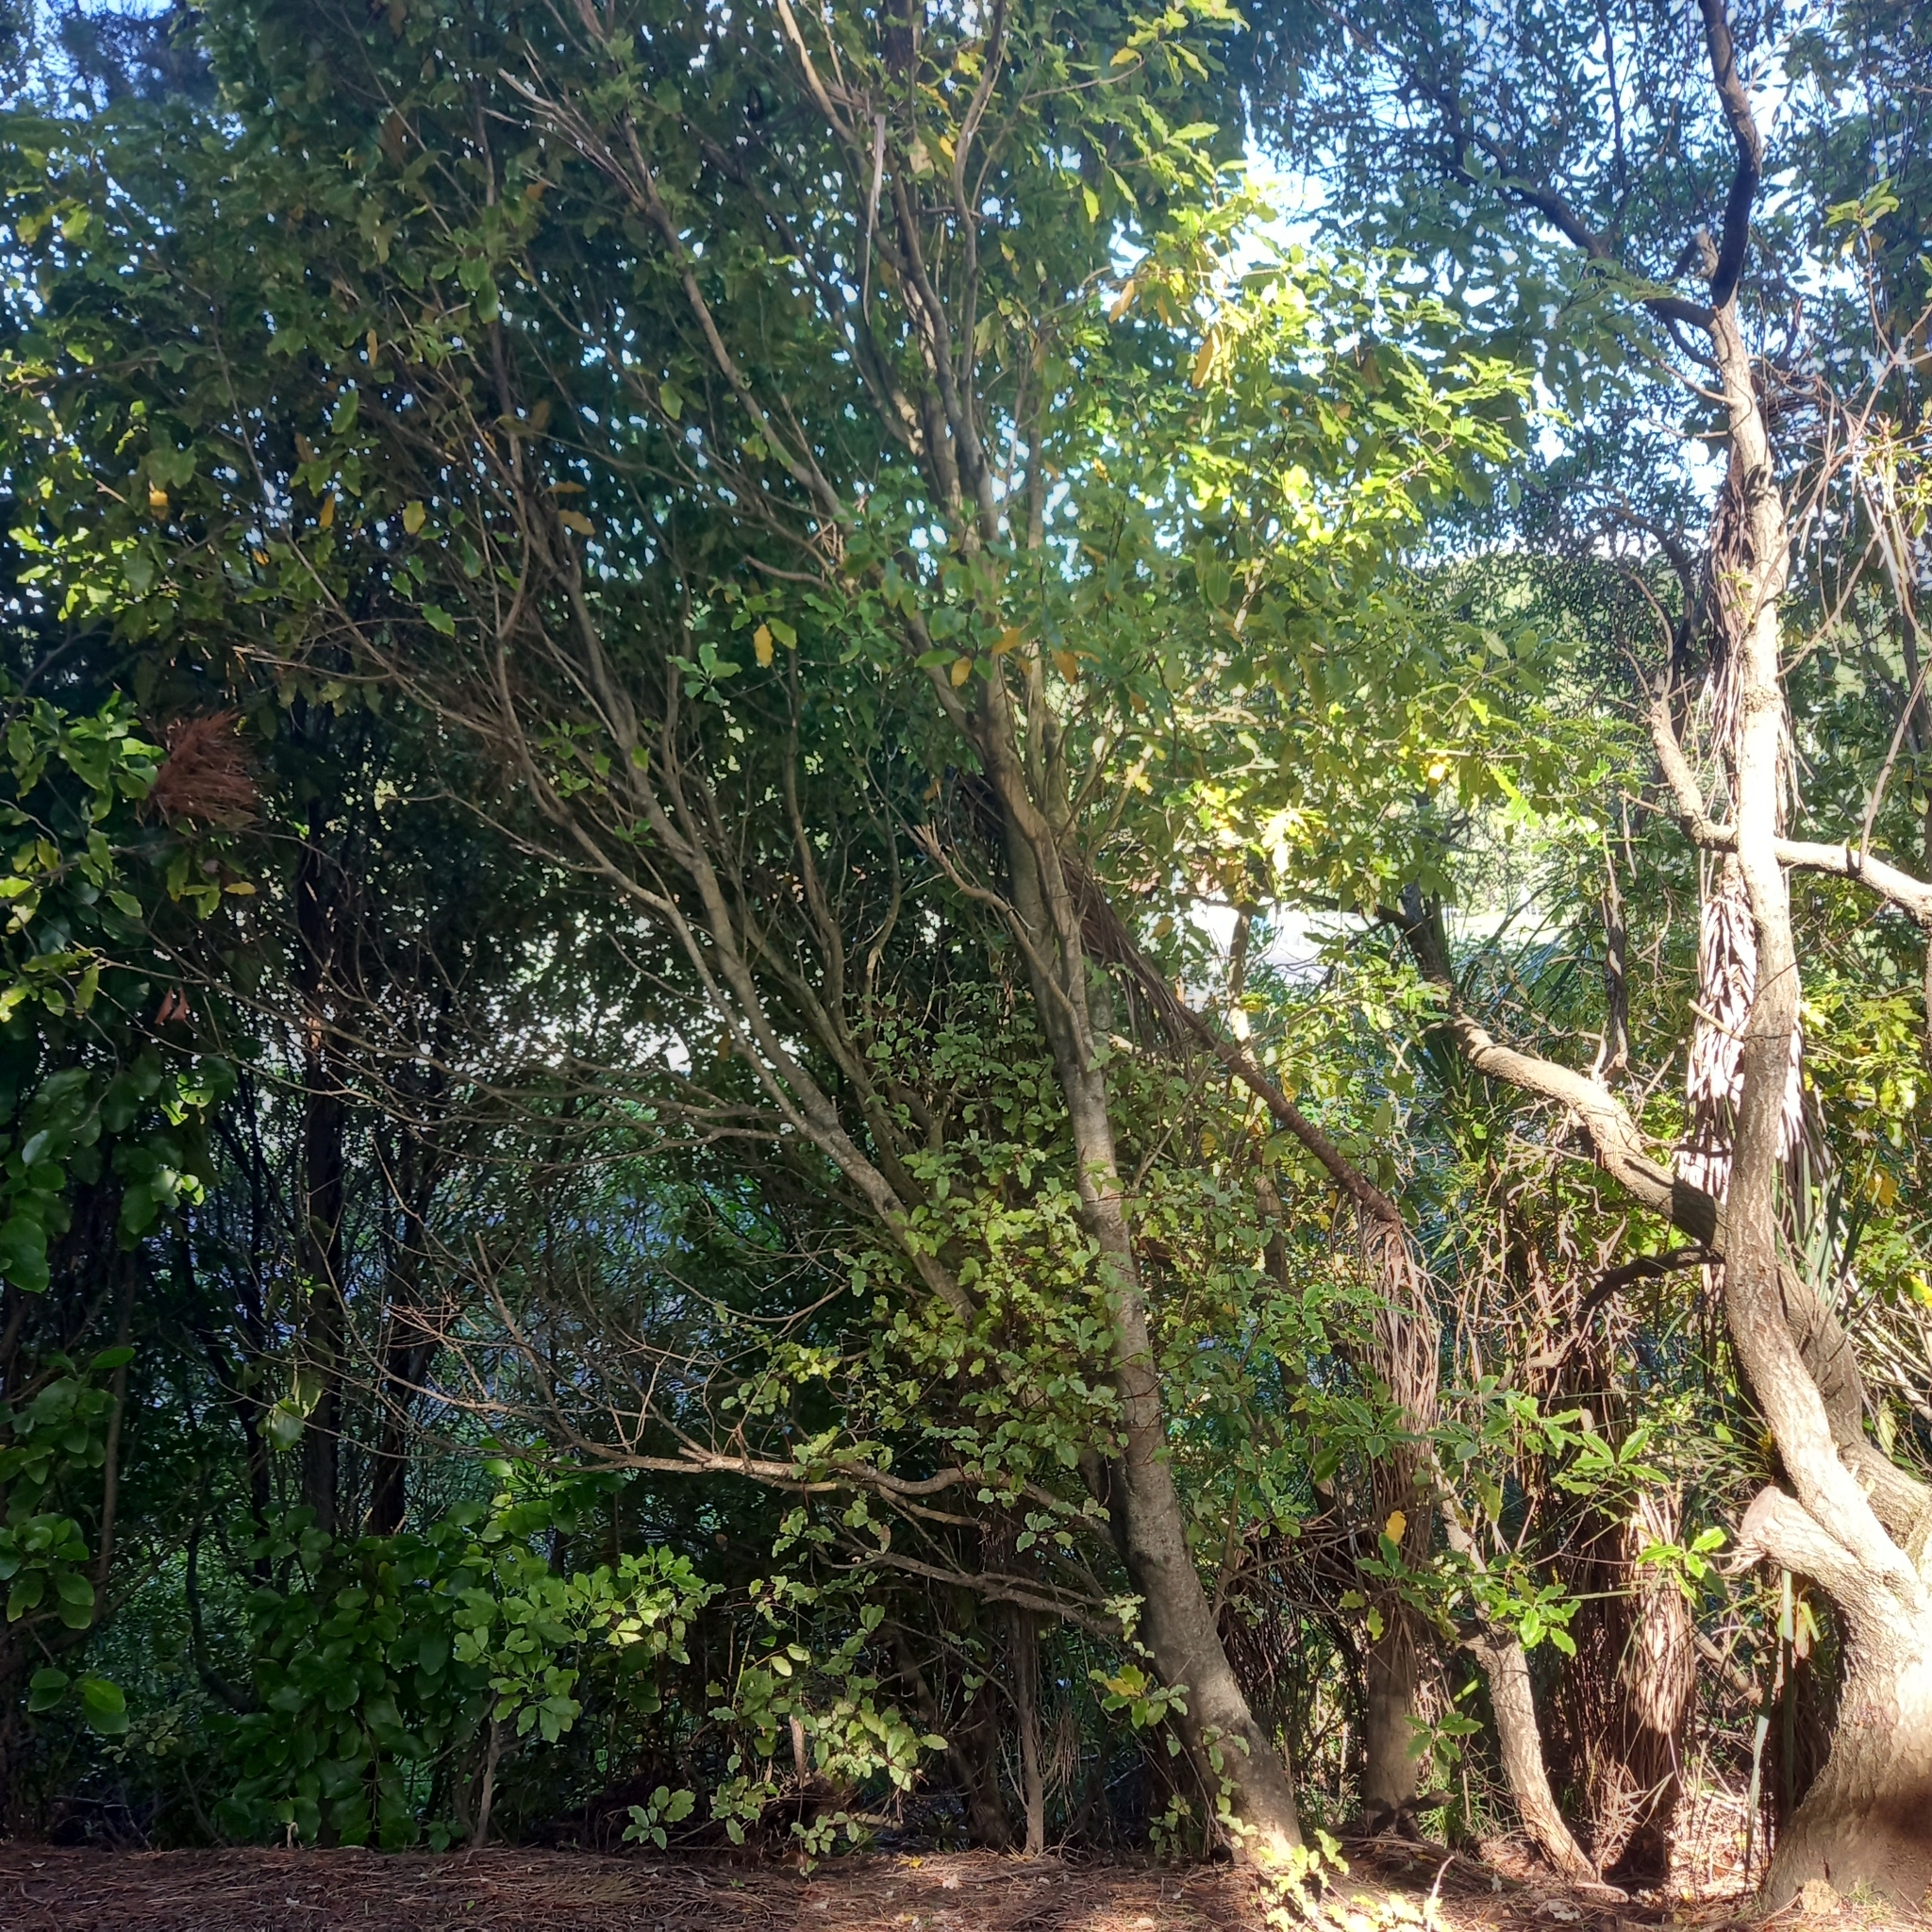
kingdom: Plantae
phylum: Tracheophyta
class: Magnoliopsida
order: Ericales
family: Primulaceae
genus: Myrsine
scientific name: Myrsine australis
